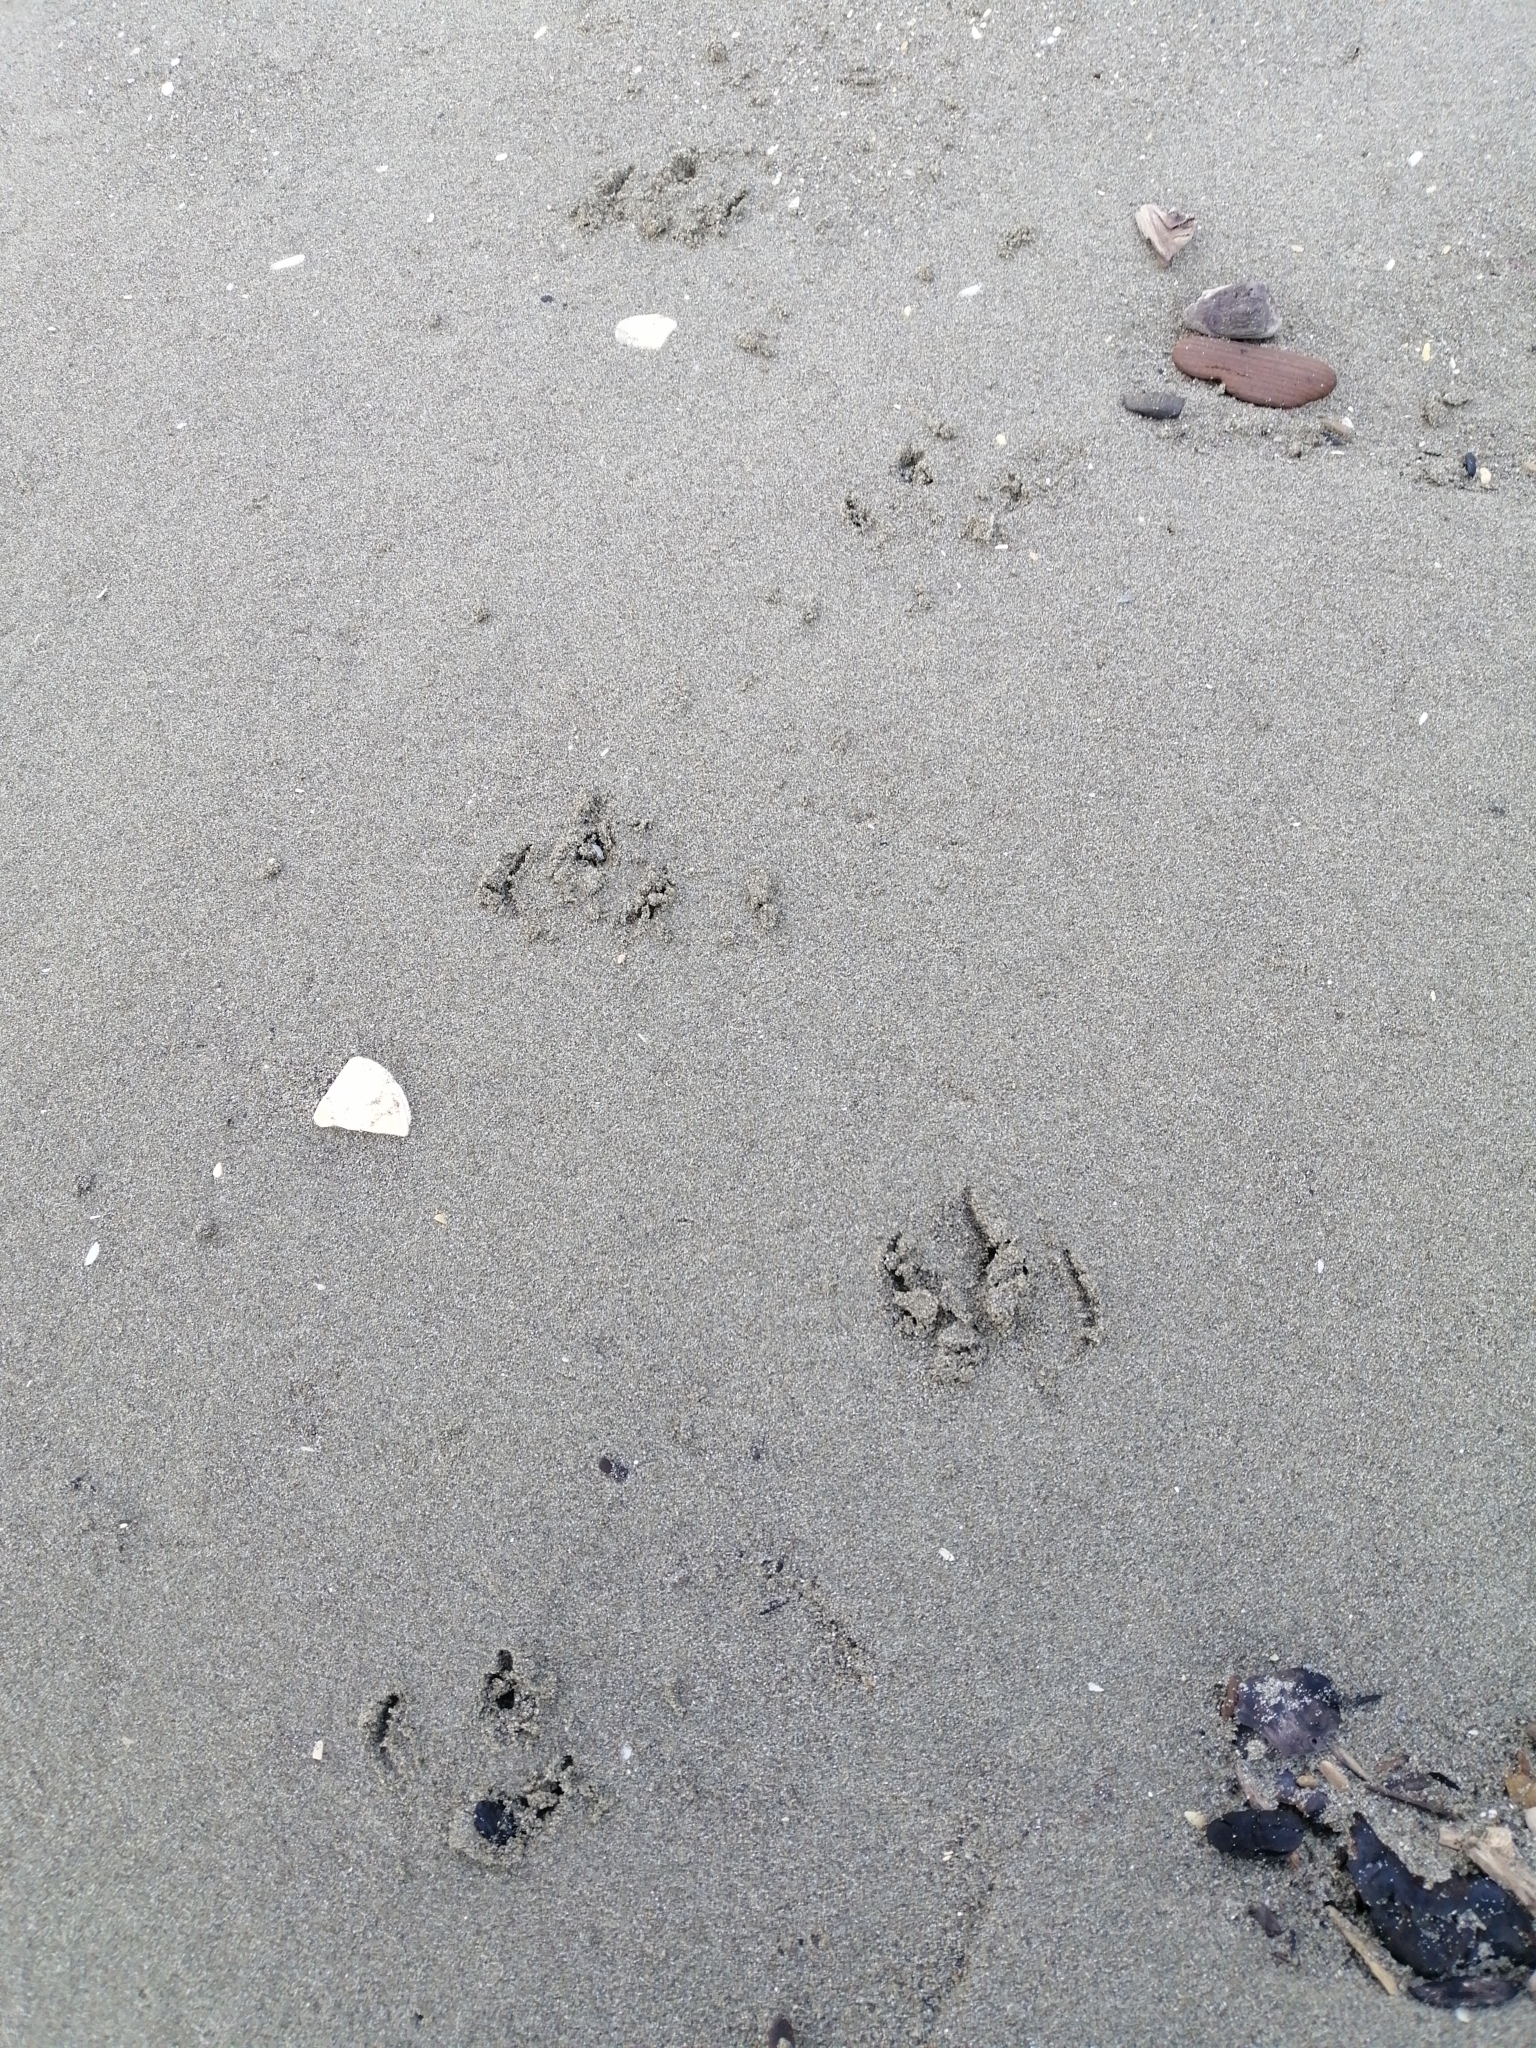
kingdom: Animalia
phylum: Chordata
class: Aves
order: Sphenisciformes
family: Spheniscidae
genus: Eudyptula
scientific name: Eudyptula minor
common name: Little penguin
